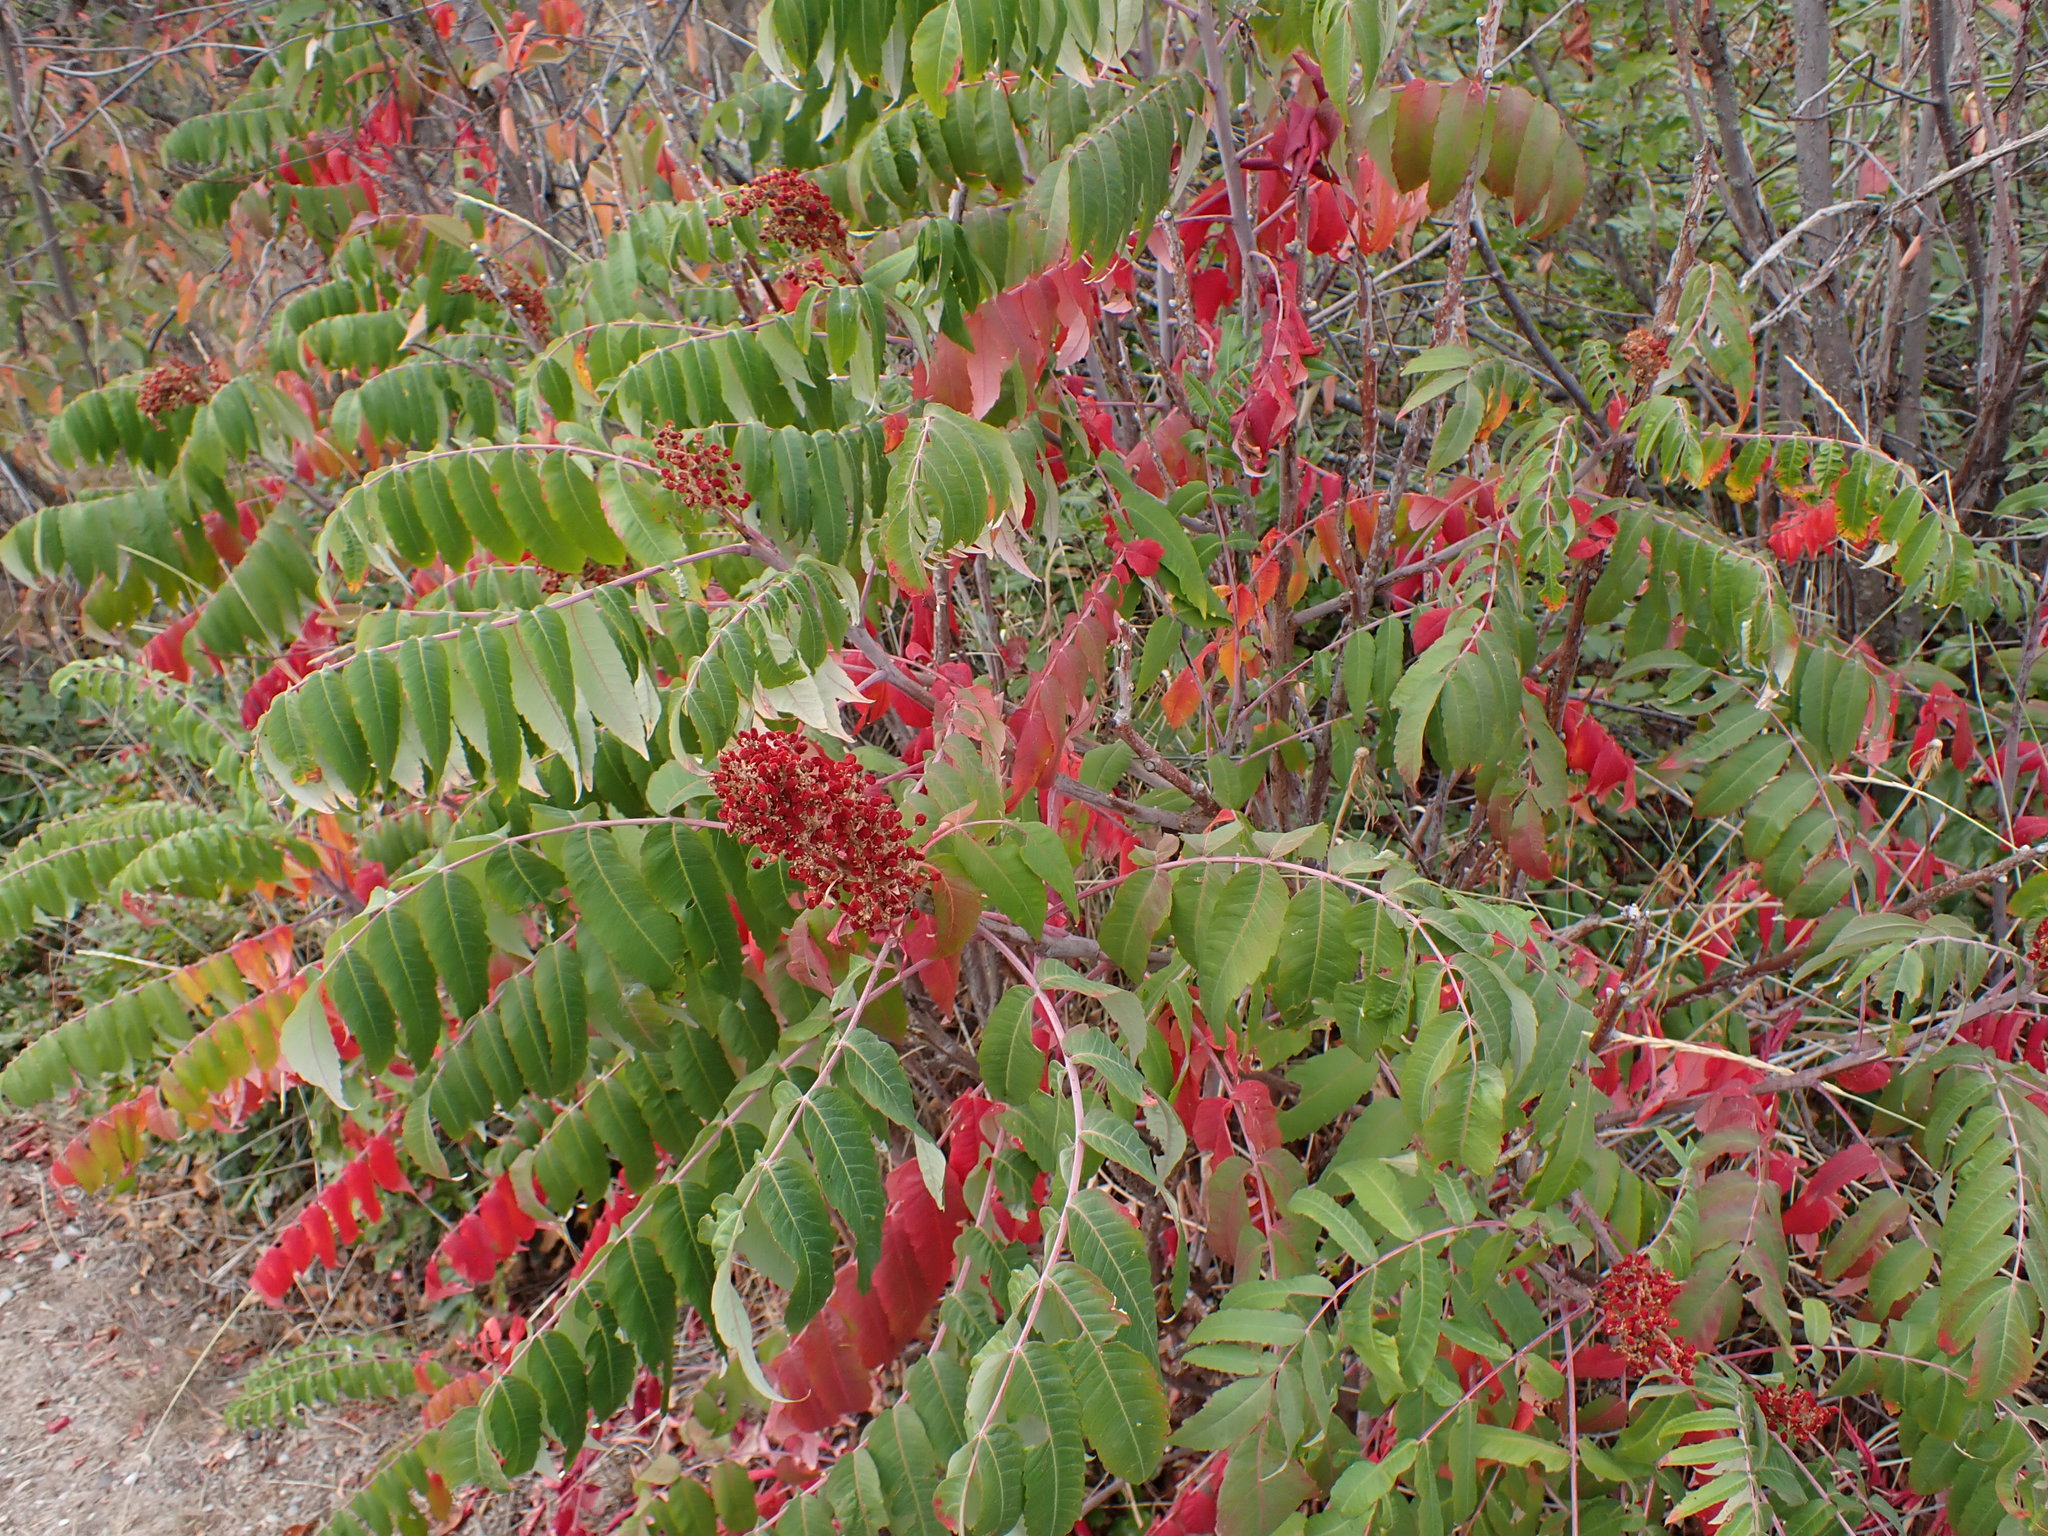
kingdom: Plantae
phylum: Tracheophyta
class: Magnoliopsida
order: Sapindales
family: Anacardiaceae
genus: Rhus
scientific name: Rhus glabra
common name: Scarlet sumac
